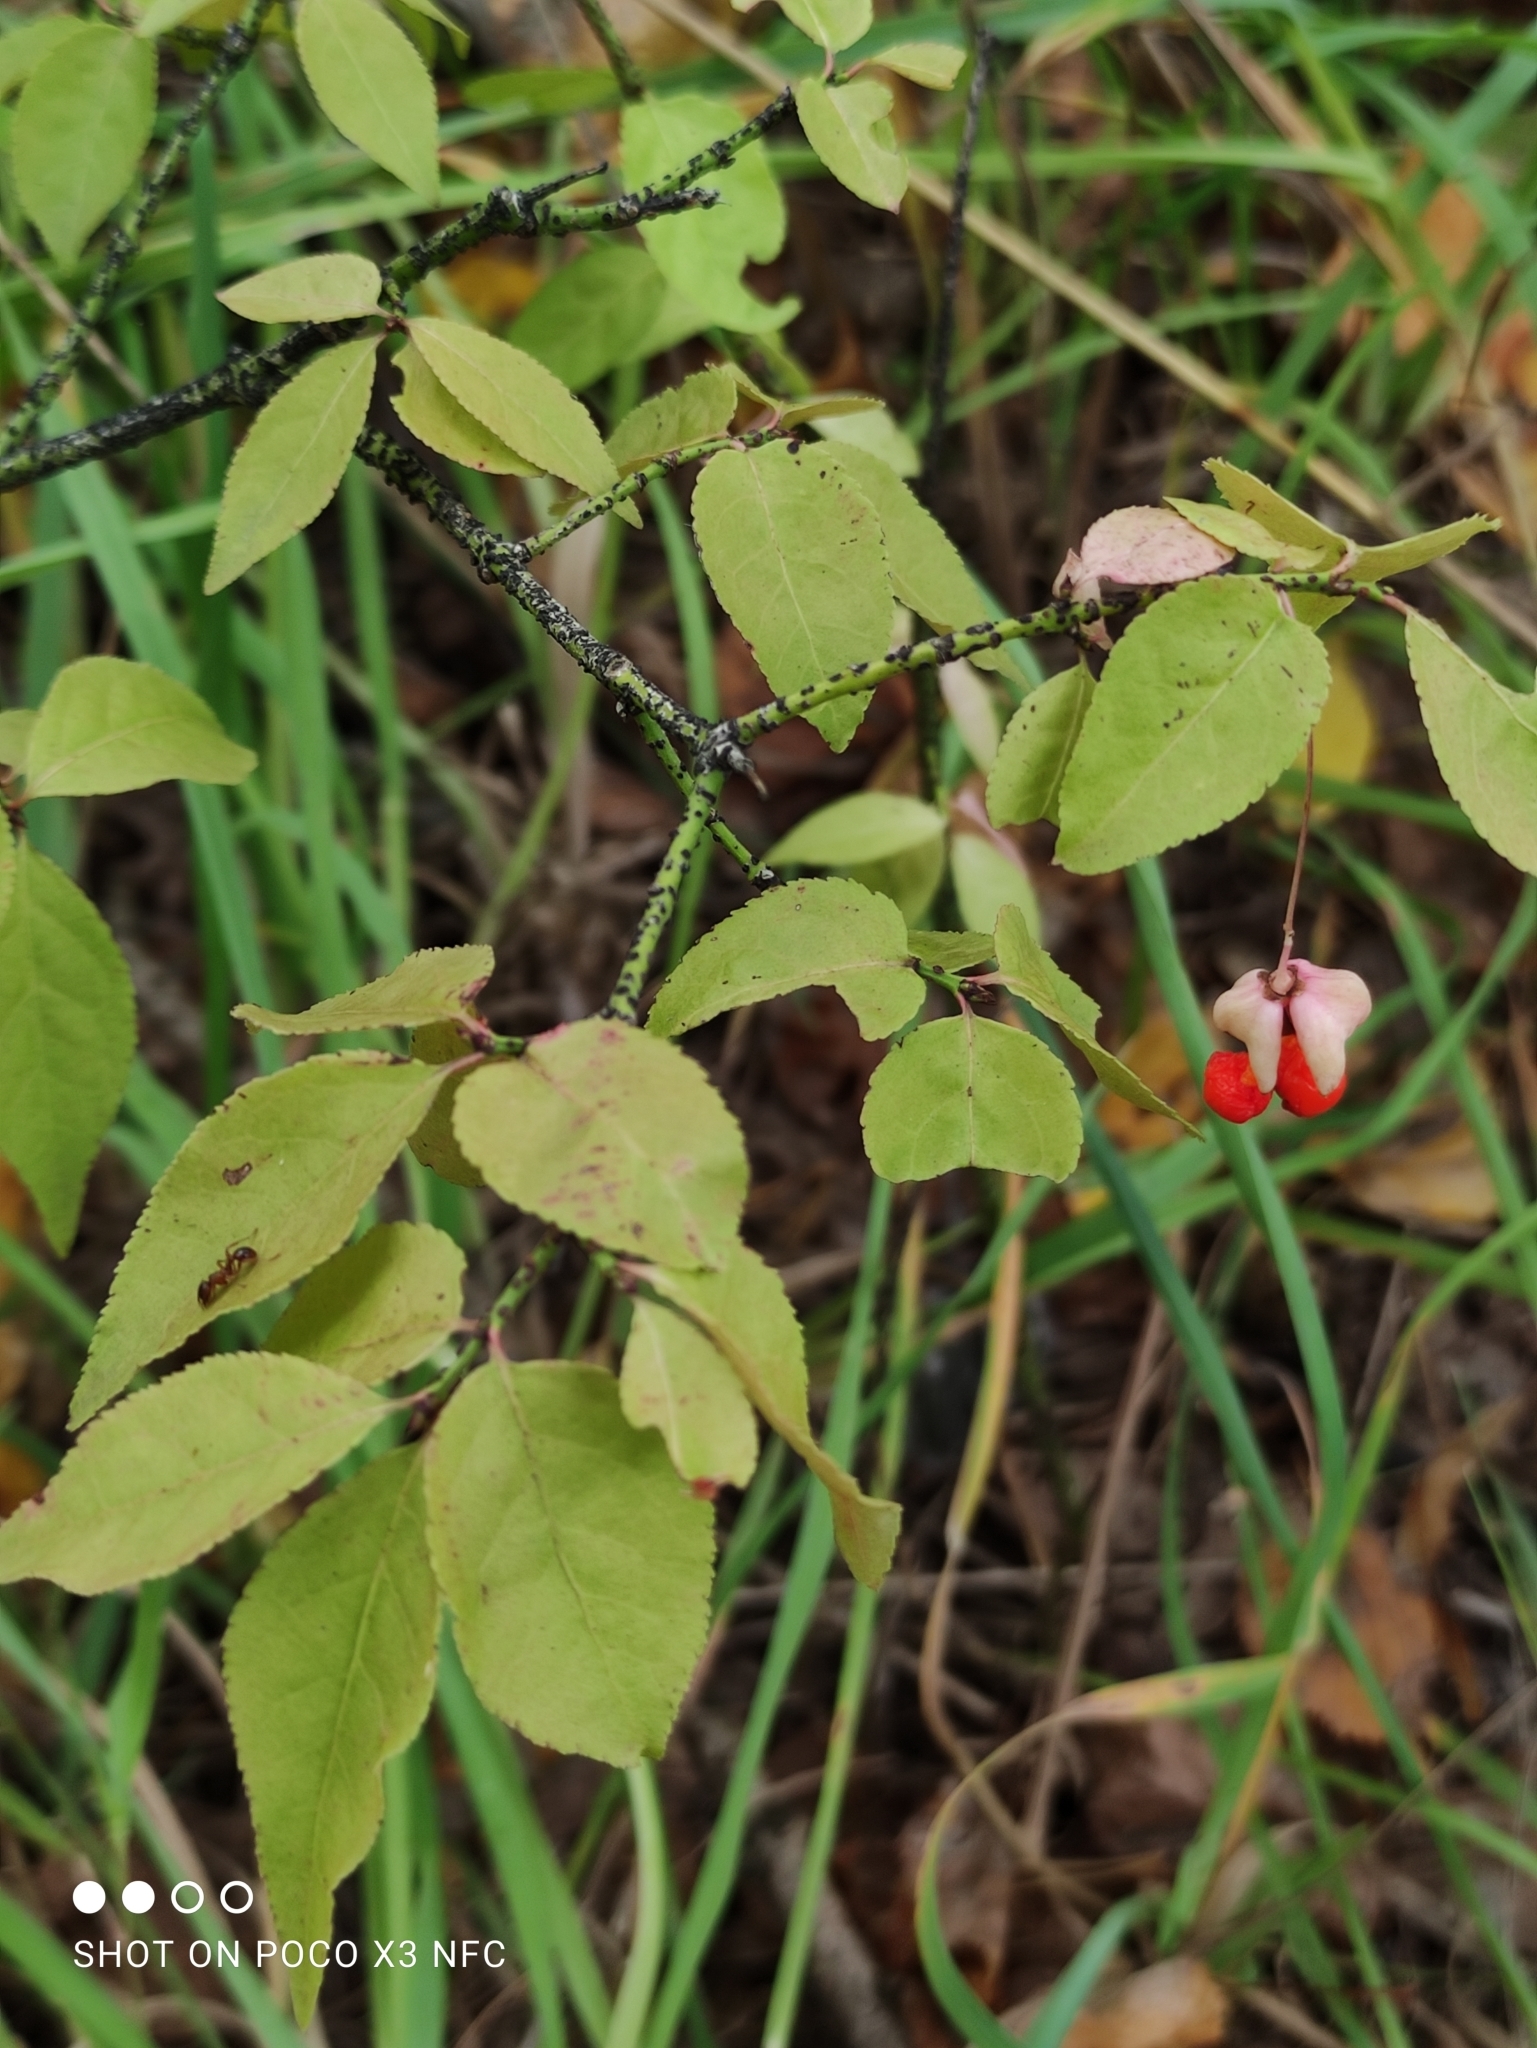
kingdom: Plantae
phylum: Tracheophyta
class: Magnoliopsida
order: Celastrales
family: Celastraceae
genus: Euonymus
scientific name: Euonymus verrucosus
